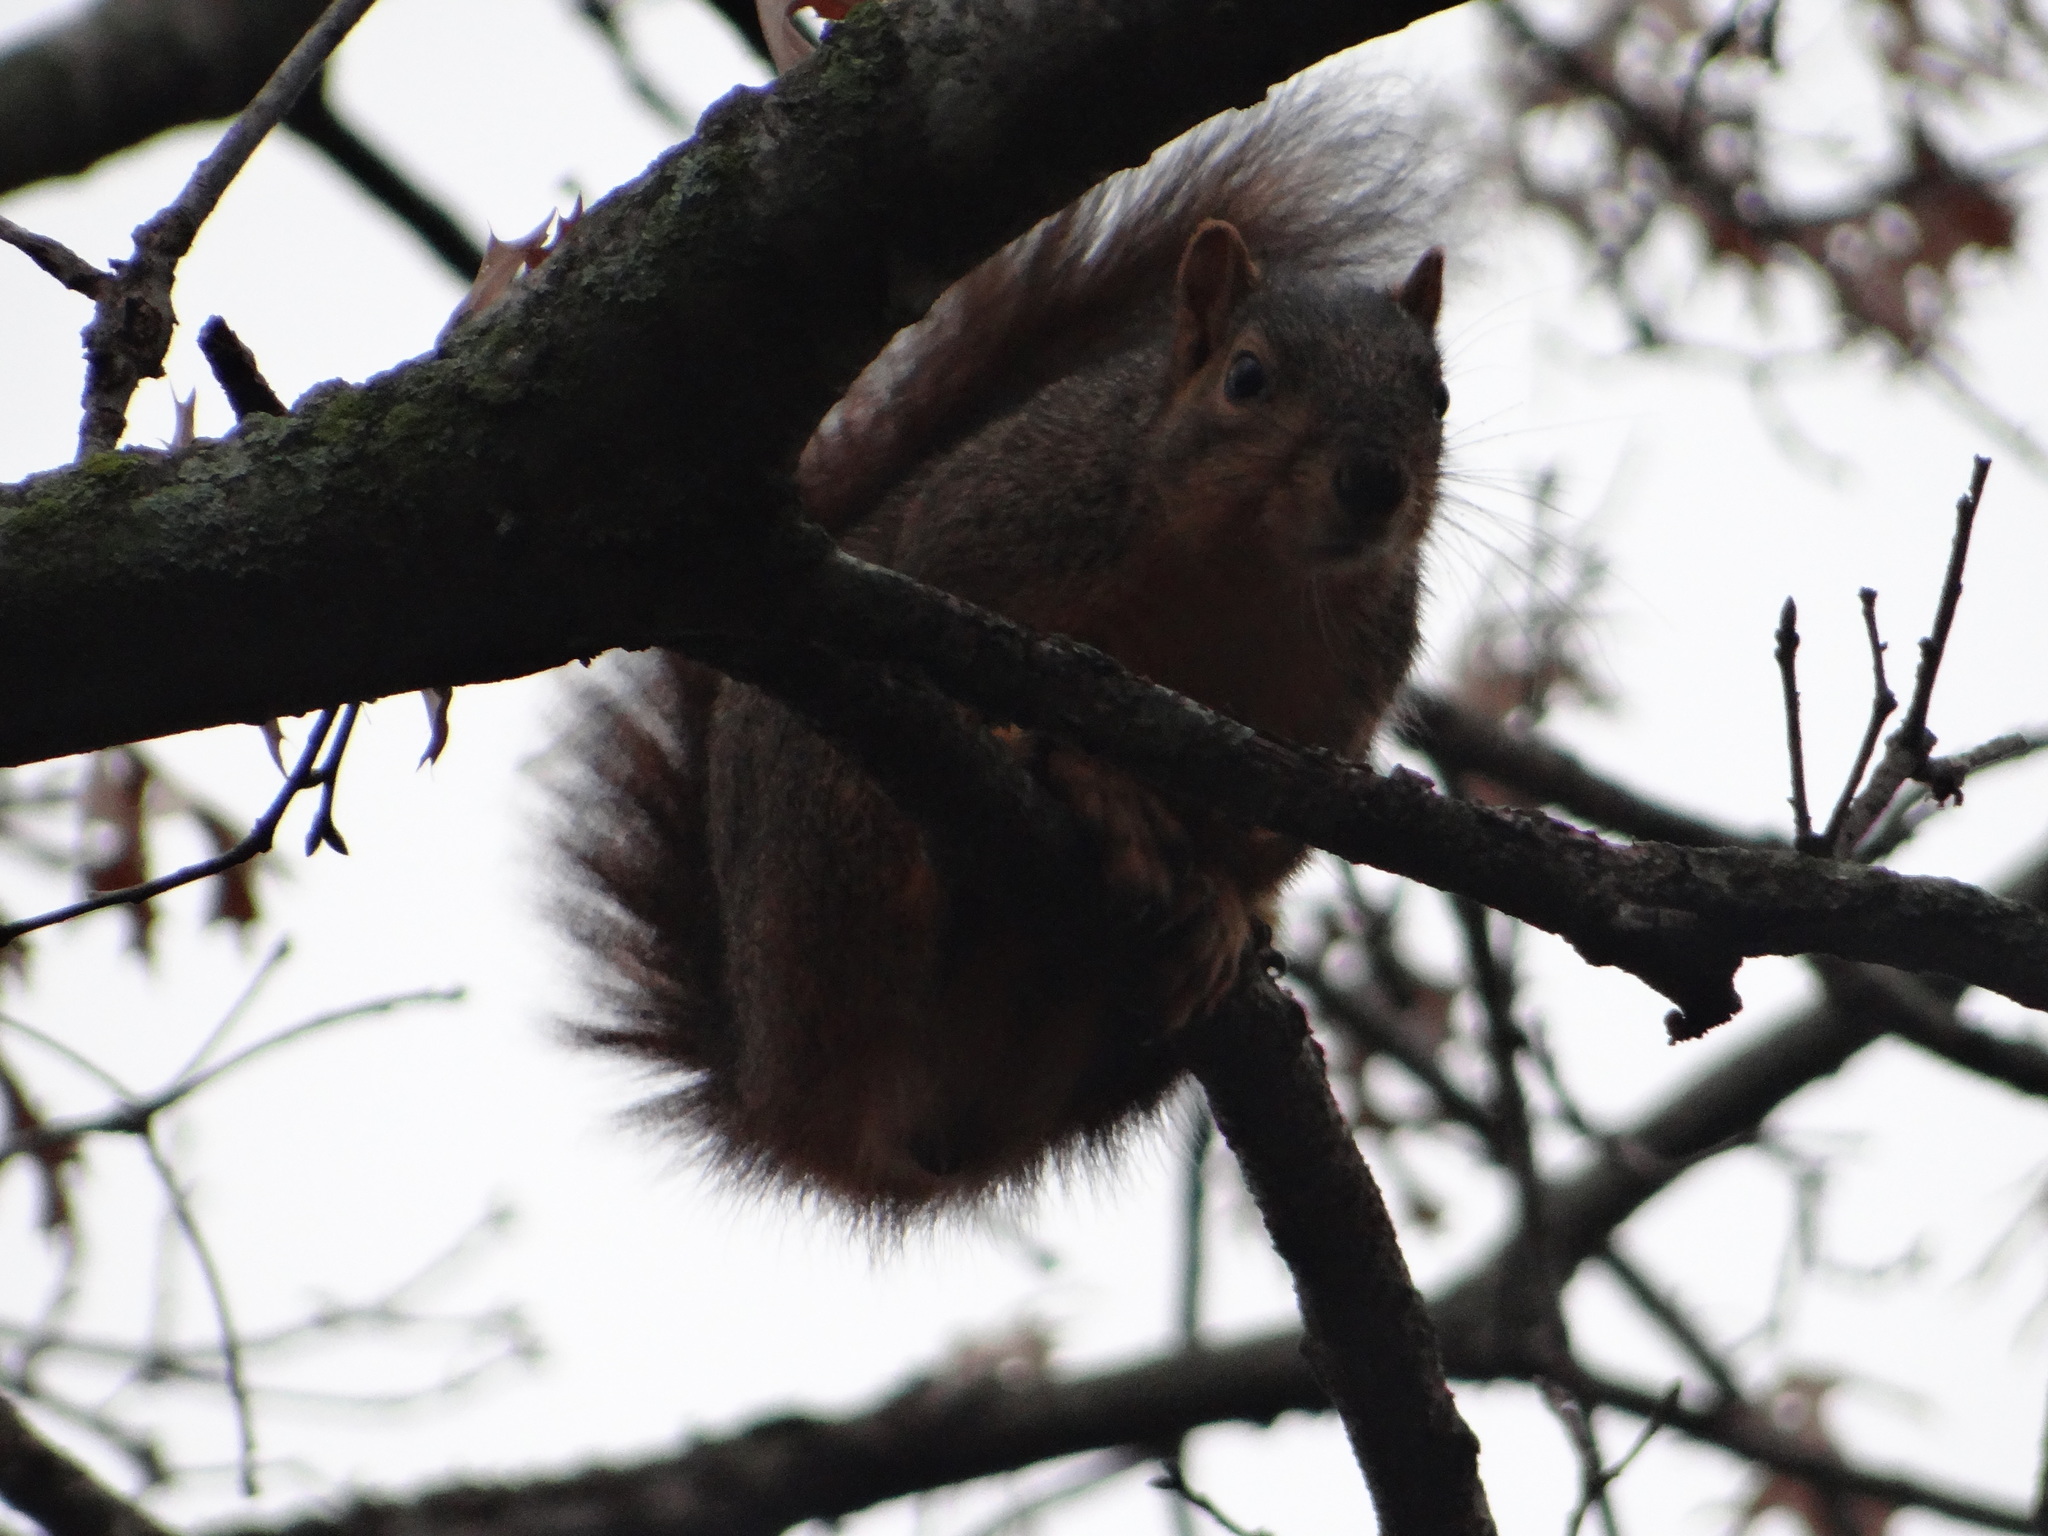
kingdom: Animalia
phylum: Chordata
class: Mammalia
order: Rodentia
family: Sciuridae
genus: Sciurus
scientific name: Sciurus niger
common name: Fox squirrel
